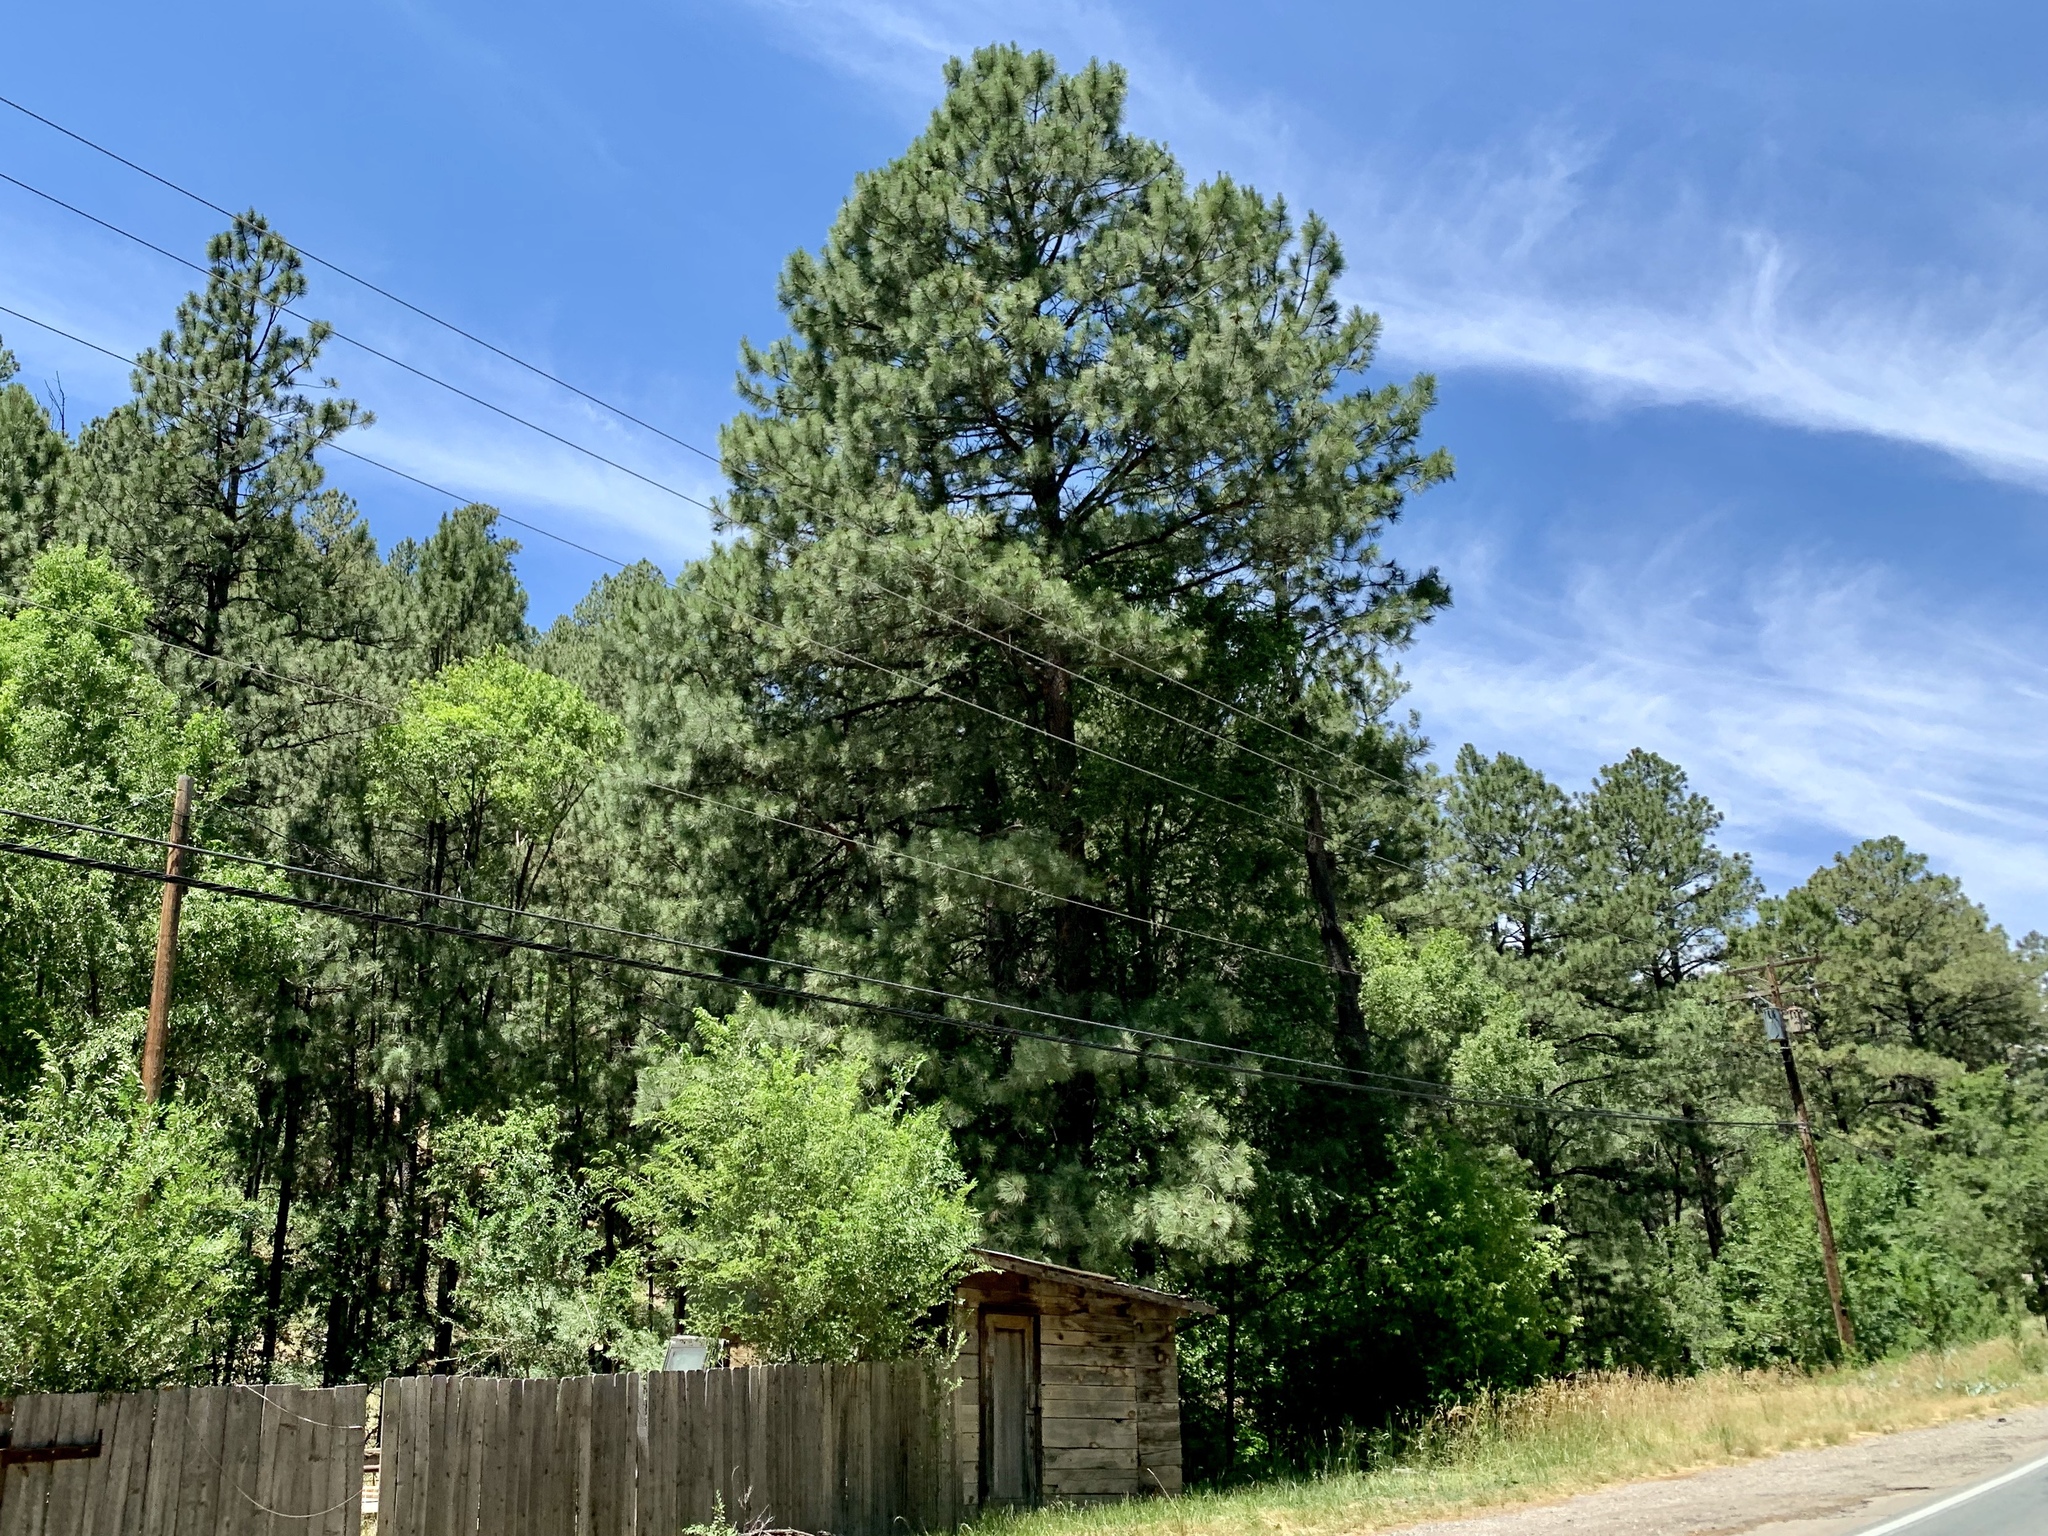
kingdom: Plantae
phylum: Tracheophyta
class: Pinopsida
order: Pinales
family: Pinaceae
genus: Pinus
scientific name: Pinus ponderosa
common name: Western yellow-pine
